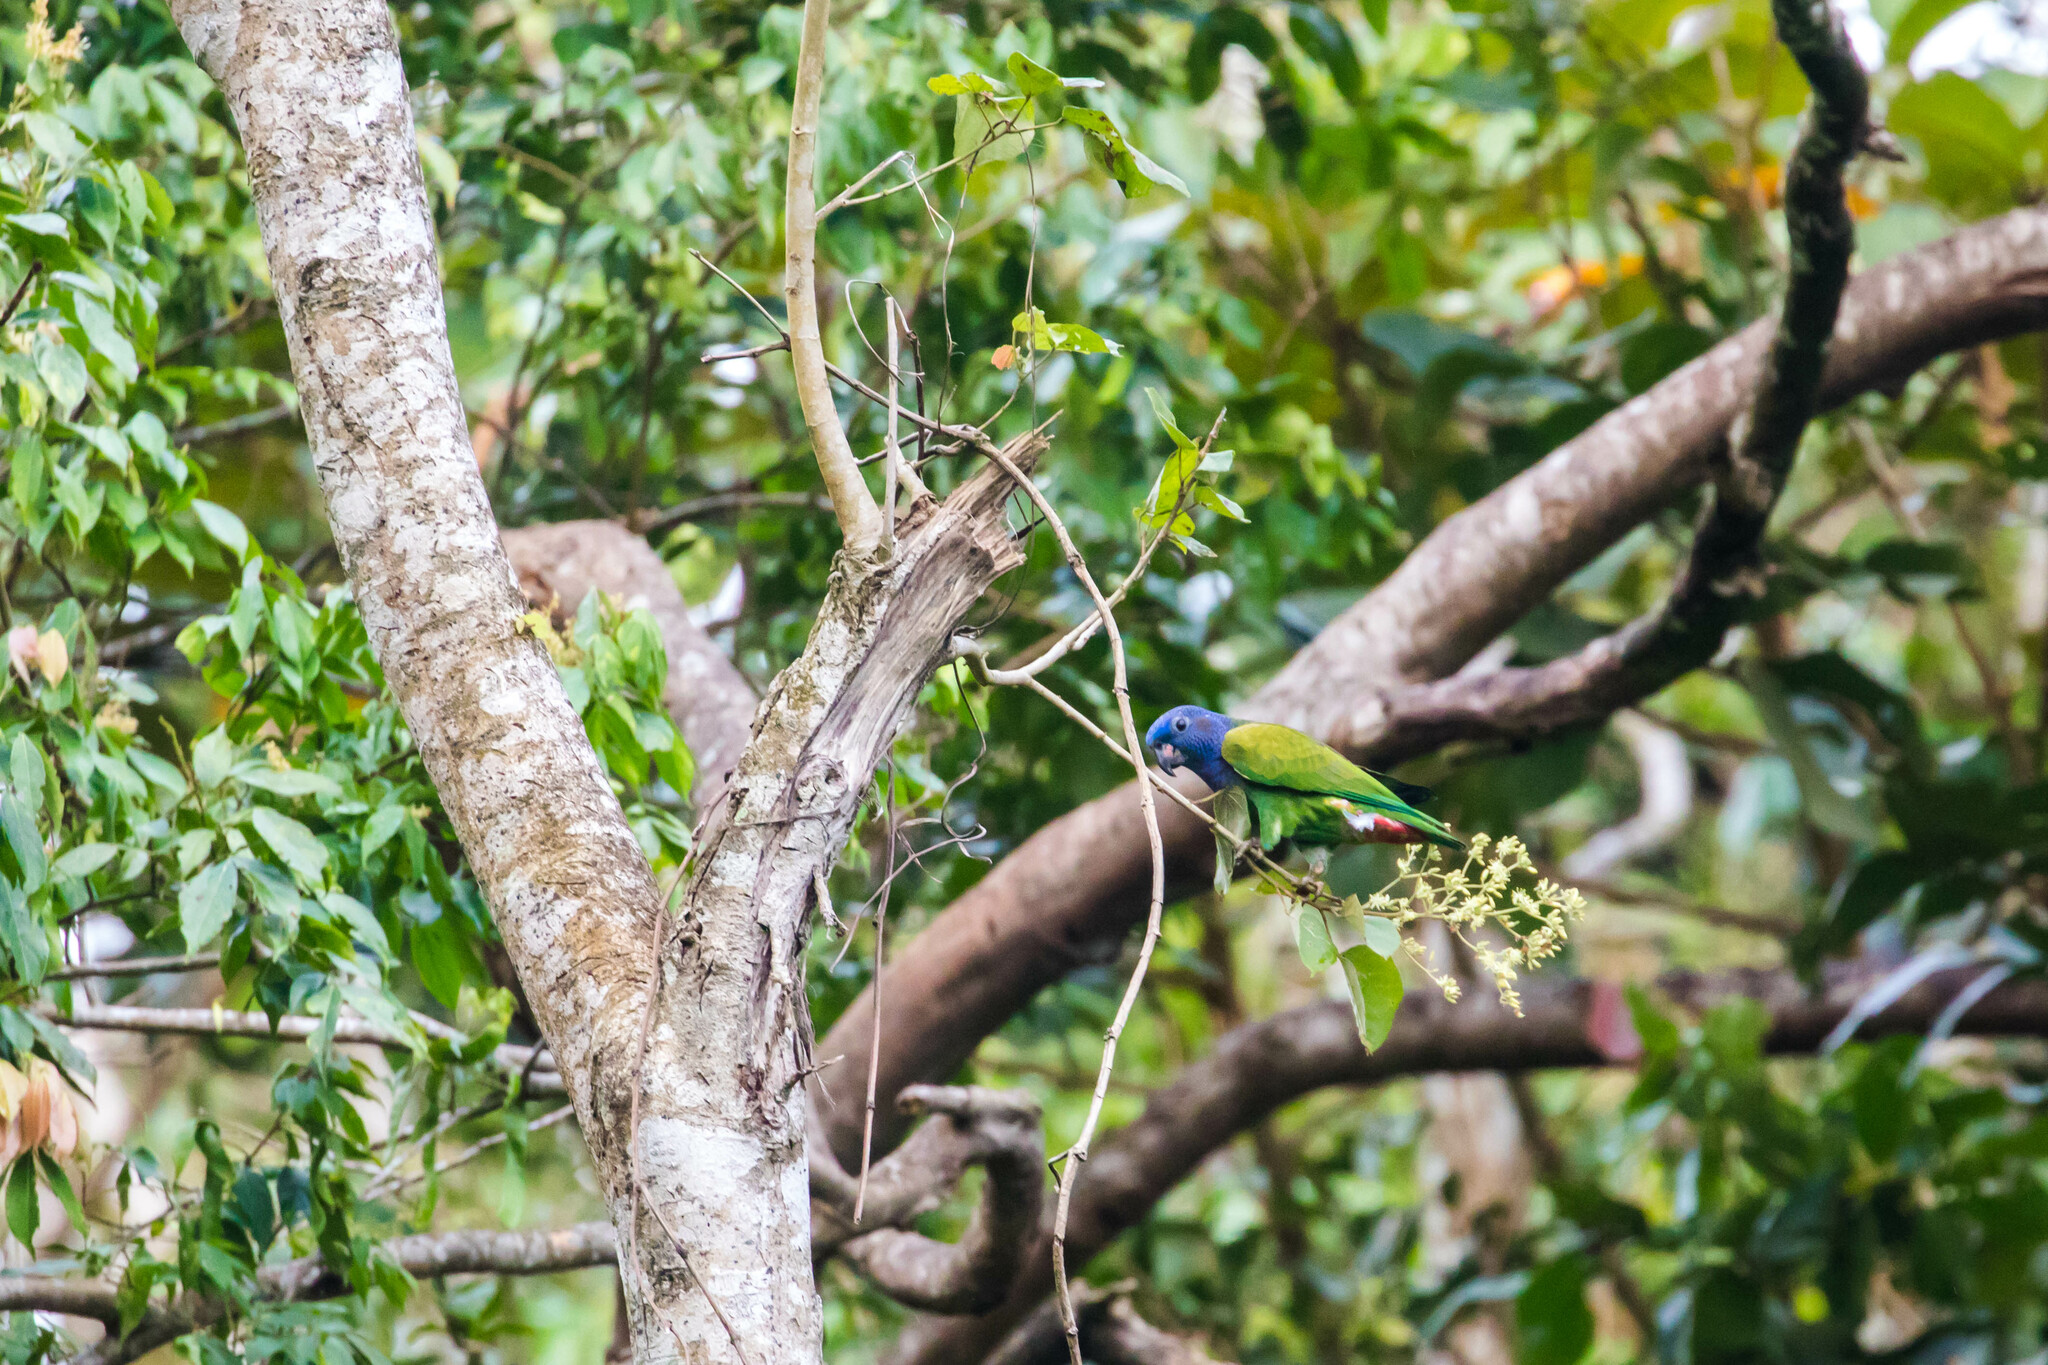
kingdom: Animalia
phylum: Chordata
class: Aves
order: Psittaciformes
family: Psittacidae
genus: Pionus
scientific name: Pionus menstruus
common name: Blue-headed parrot
